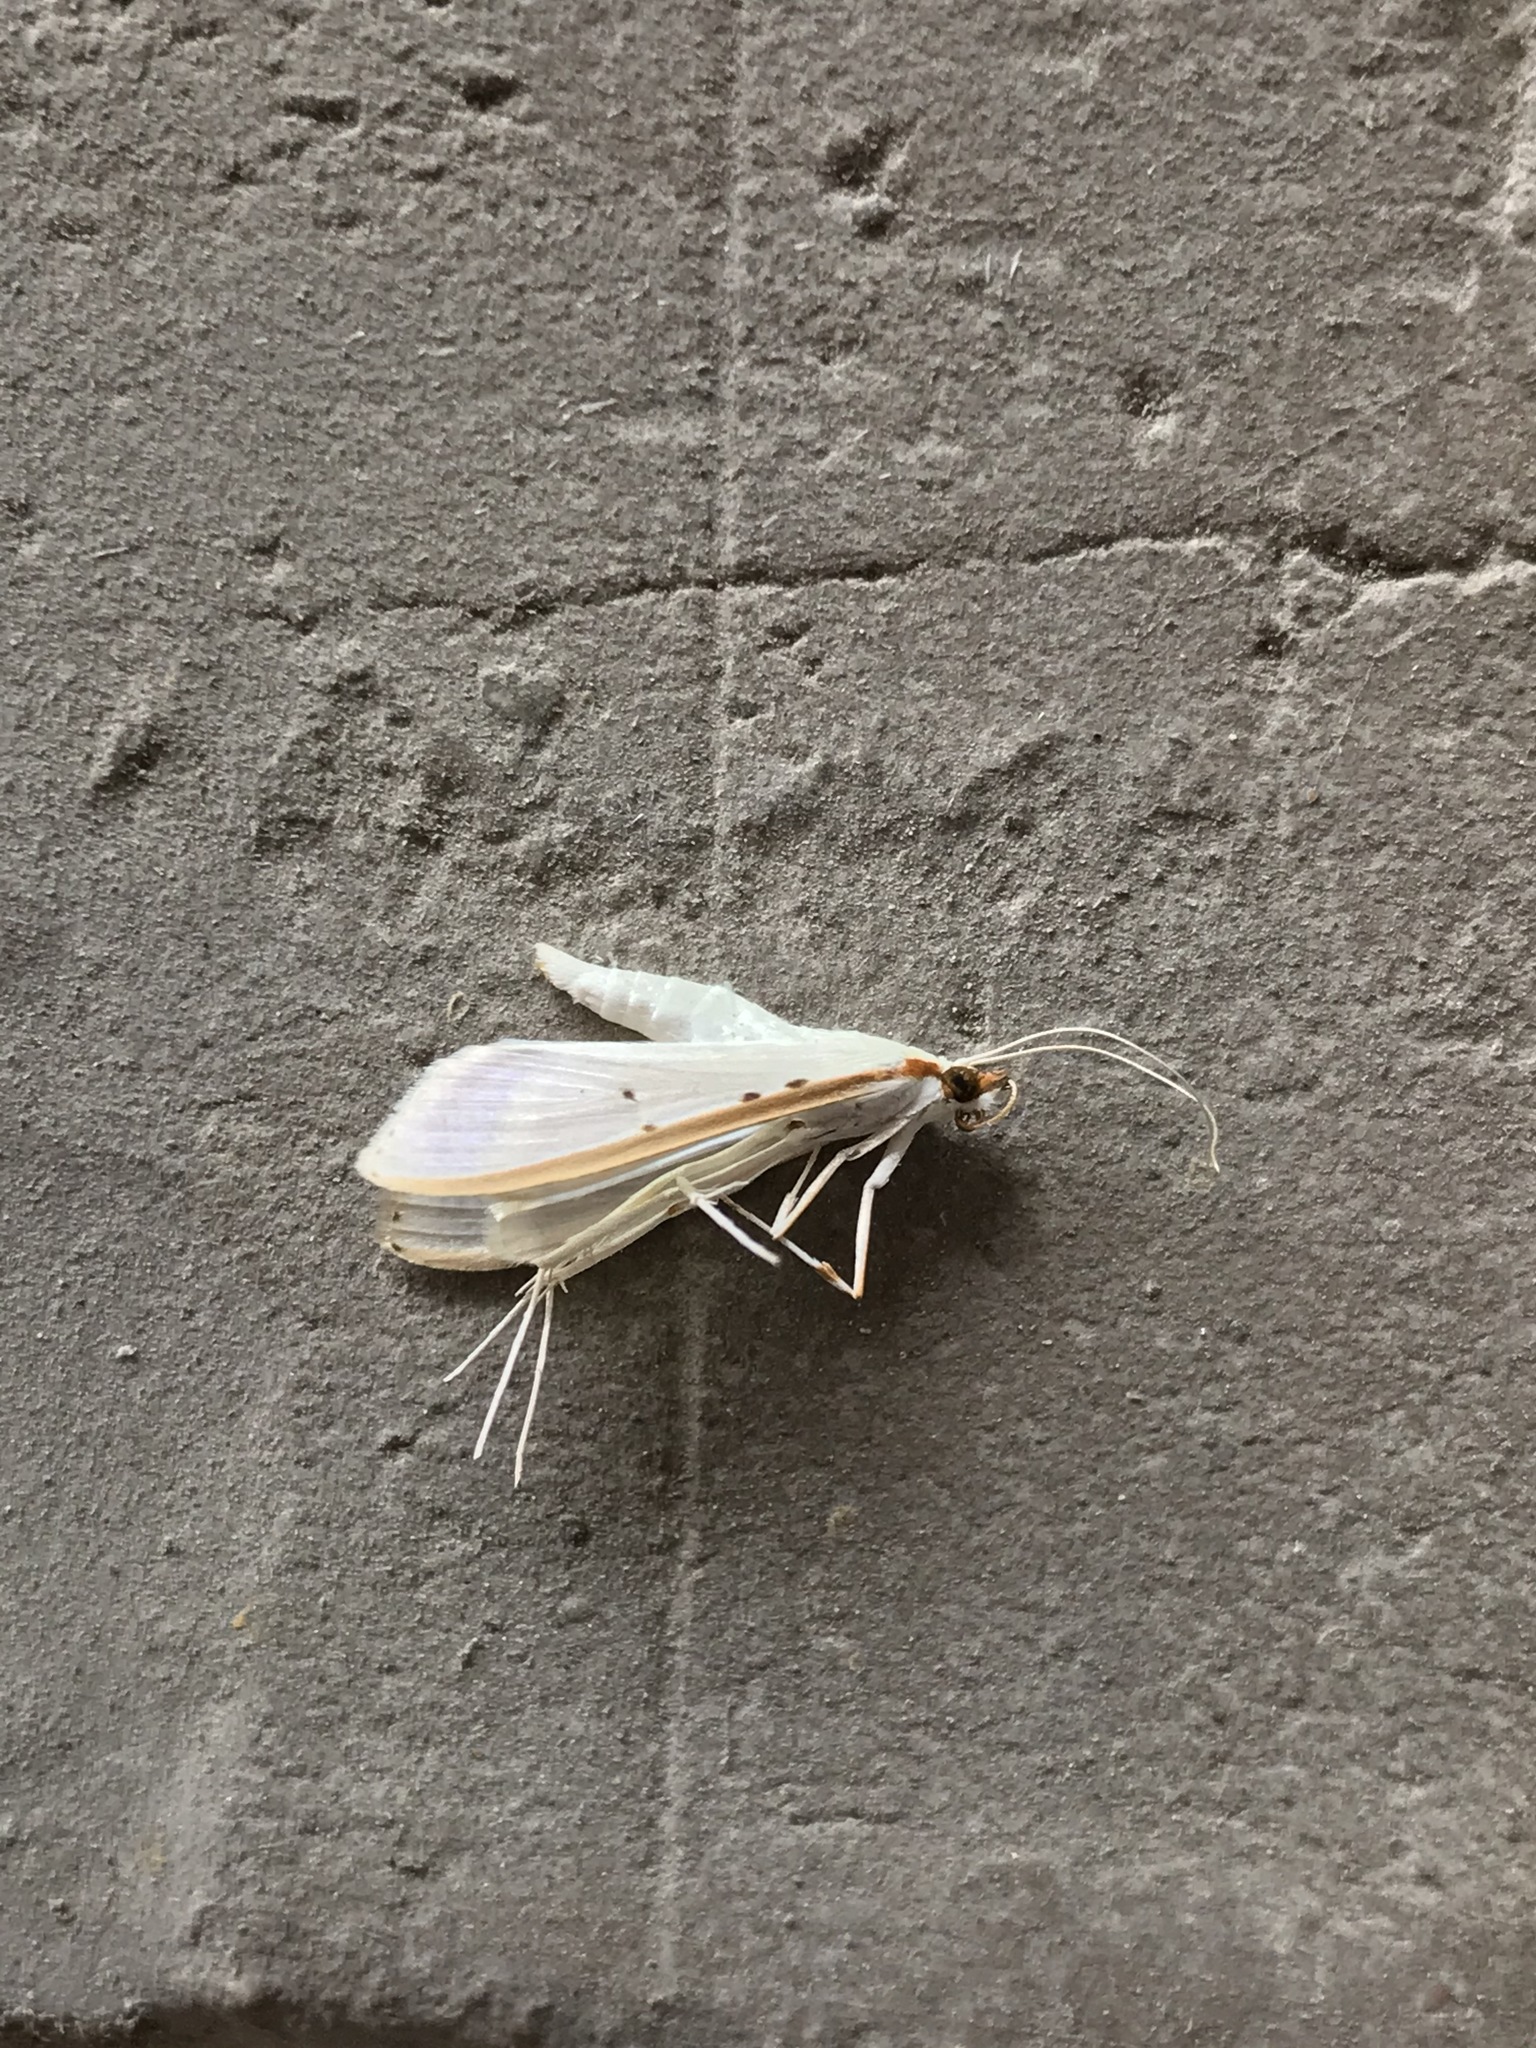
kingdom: Animalia
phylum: Arthropoda
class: Insecta
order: Lepidoptera
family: Crambidae
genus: Palpita
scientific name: Palpita quadristigmalis
